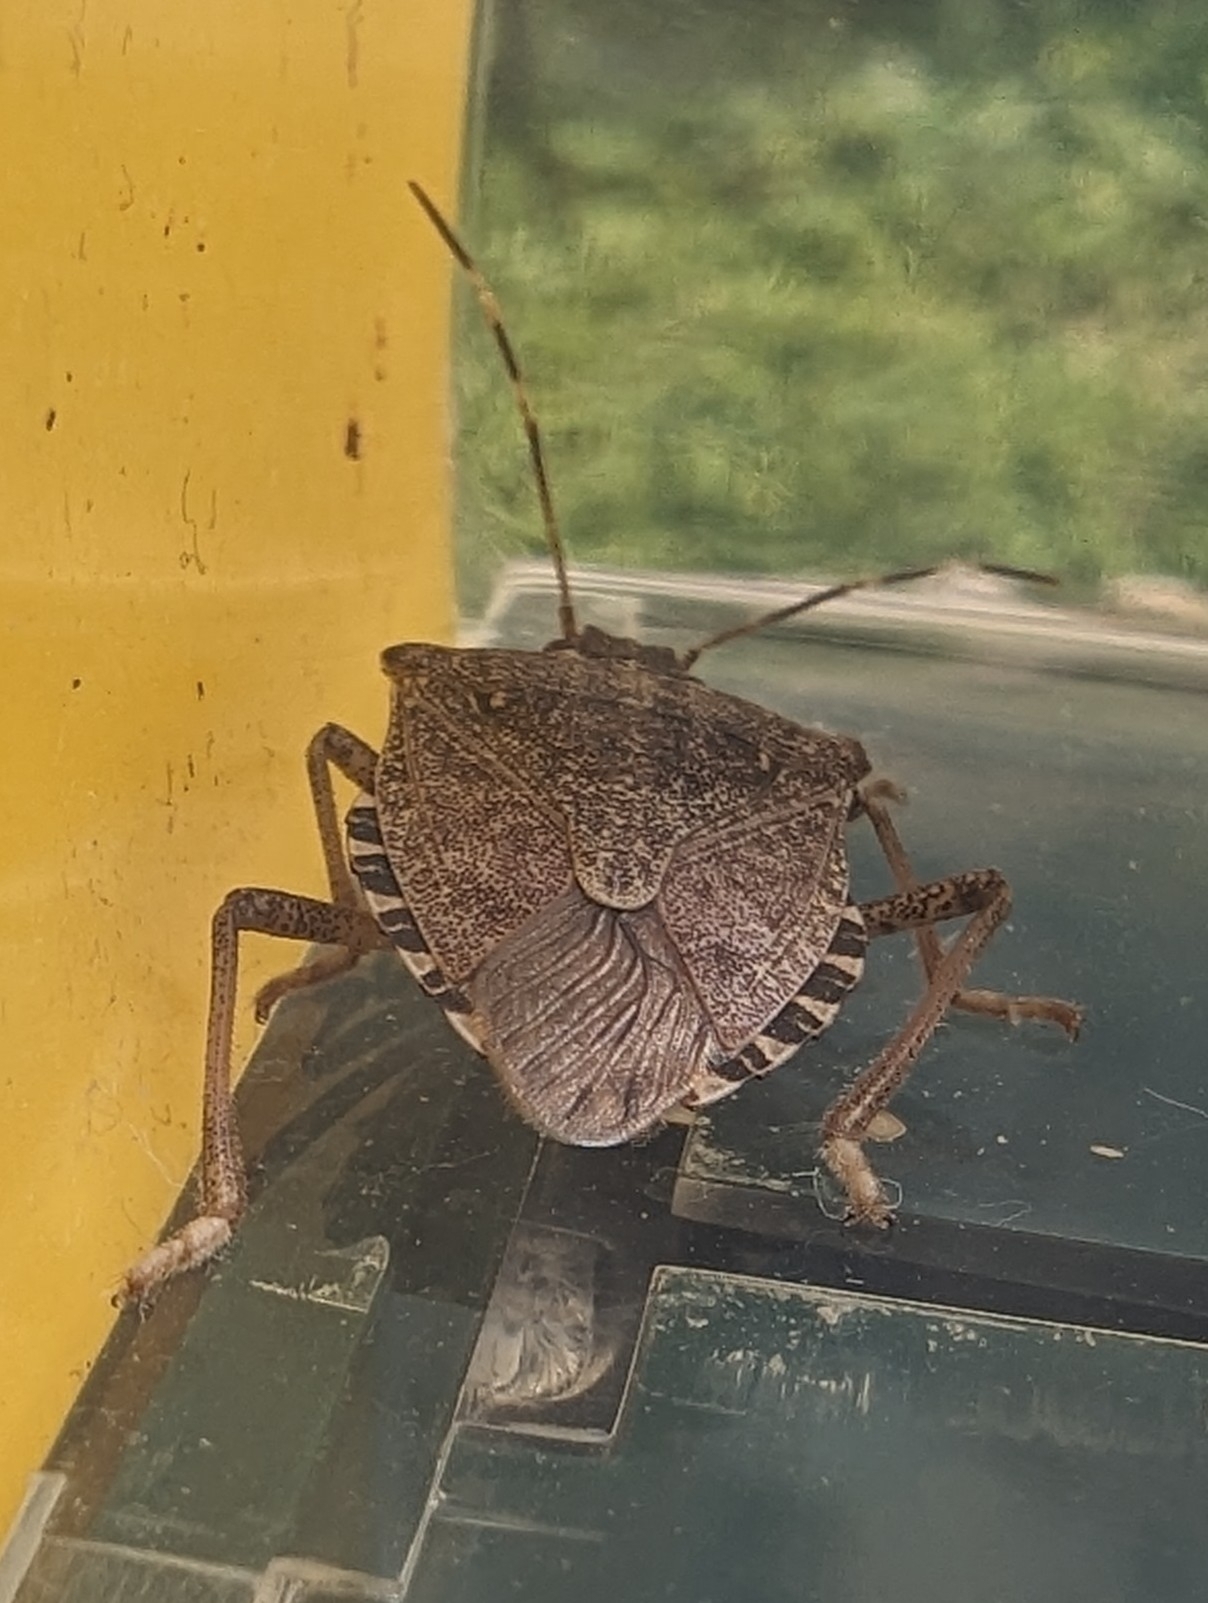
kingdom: Animalia
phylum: Arthropoda
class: Insecta
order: Hemiptera
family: Pentatomidae
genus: Halyomorpha
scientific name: Halyomorpha halys
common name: Brown marmorated stink bug
